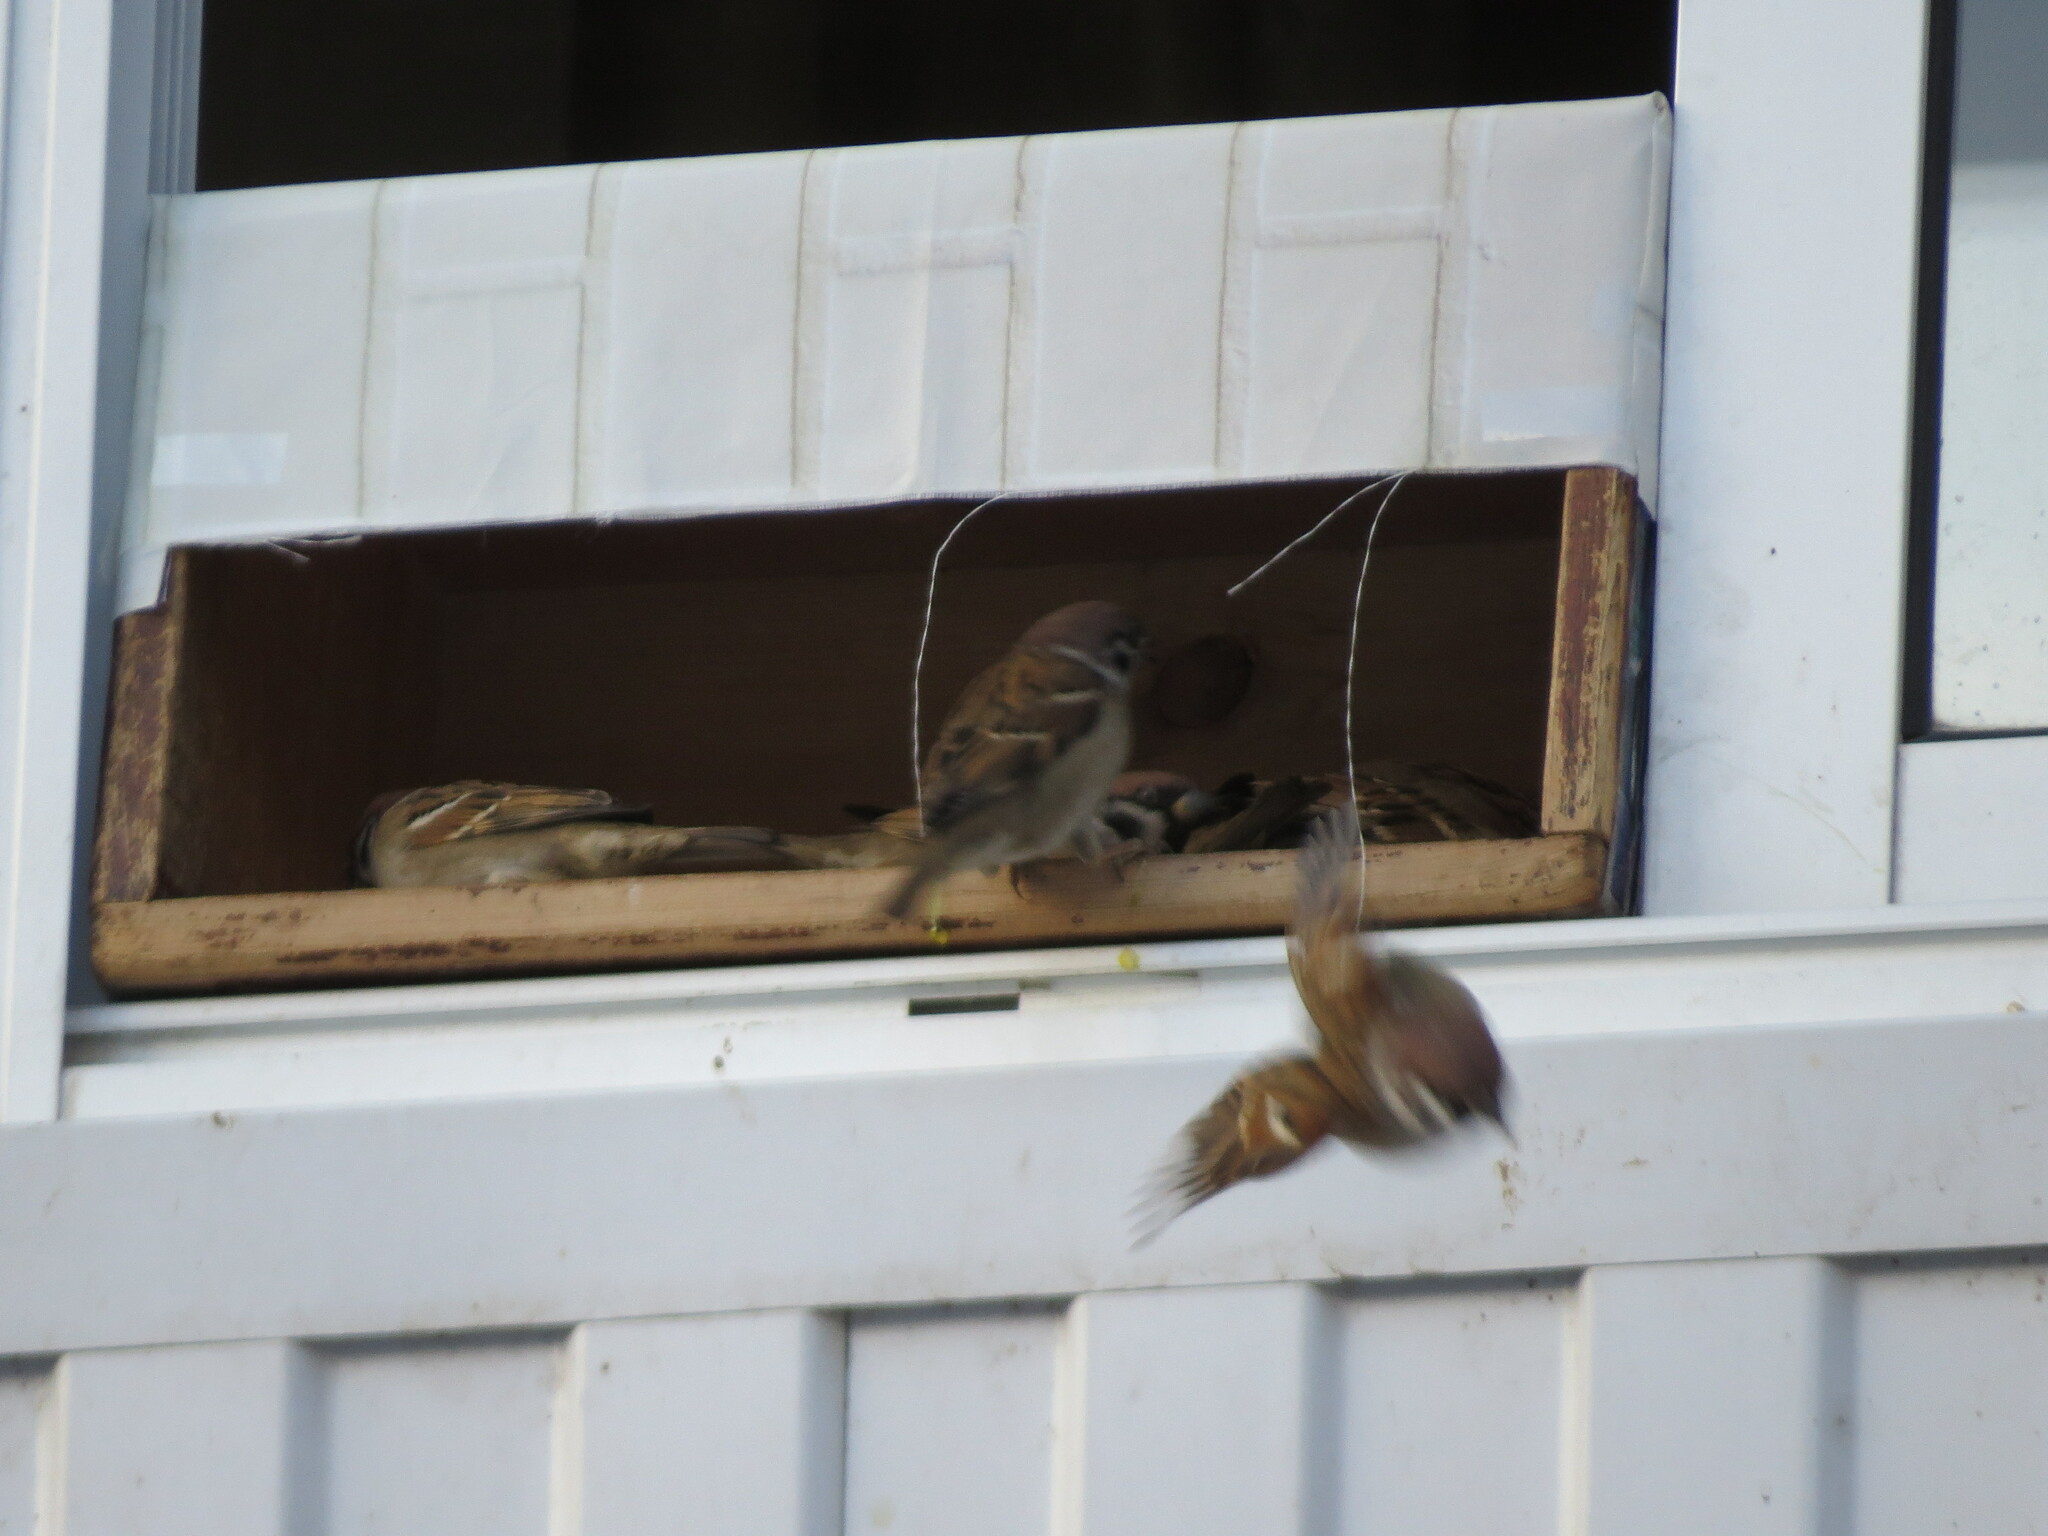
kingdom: Animalia
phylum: Chordata
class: Aves
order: Passeriformes
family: Passeridae
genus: Passer
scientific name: Passer montanus
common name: Eurasian tree sparrow
